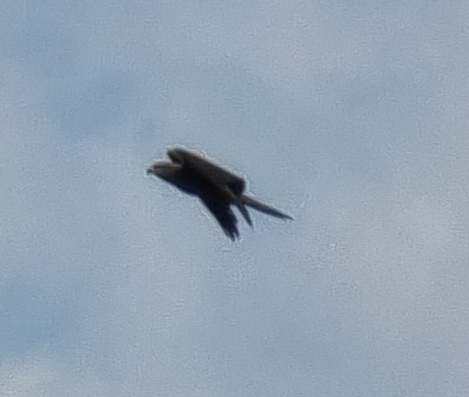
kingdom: Animalia
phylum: Chordata
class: Aves
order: Accipitriformes
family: Accipitridae
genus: Milvus
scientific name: Milvus migrans
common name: Black kite
